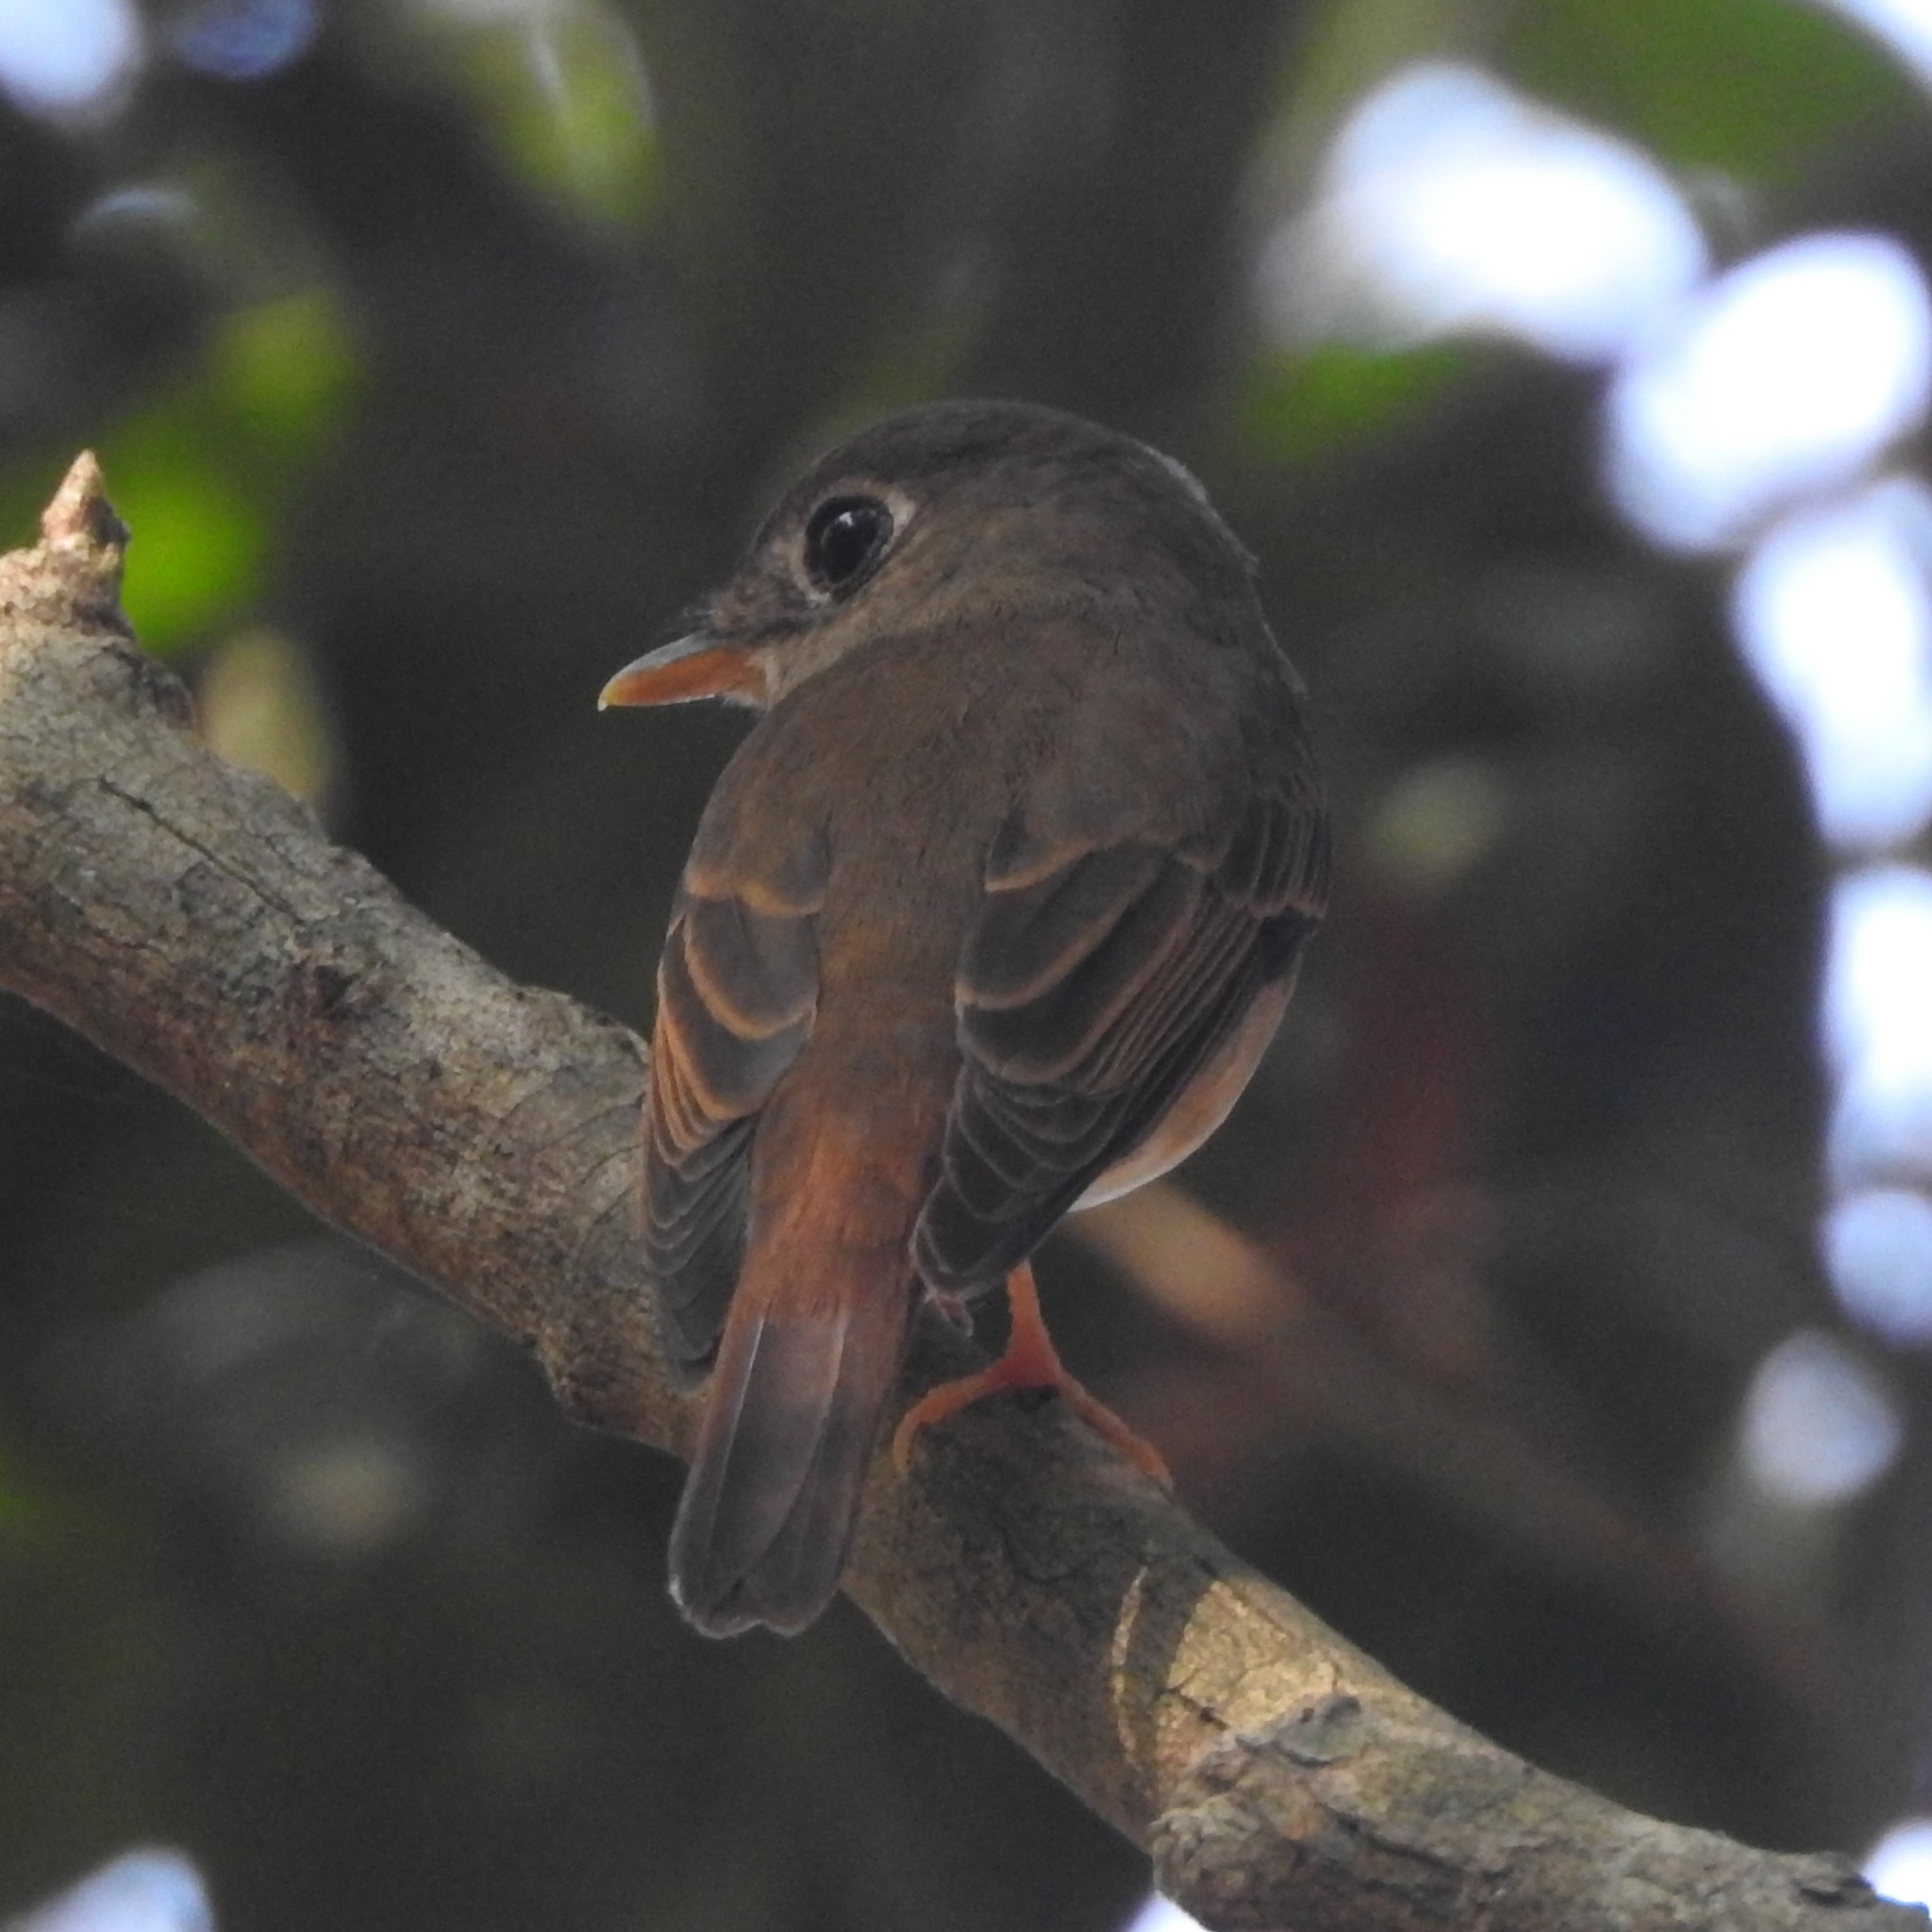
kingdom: Animalia
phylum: Chordata
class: Aves
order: Passeriformes
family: Muscicapidae
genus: Muscicapa
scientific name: Muscicapa muttui
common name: Brown-breasted flycatcher
